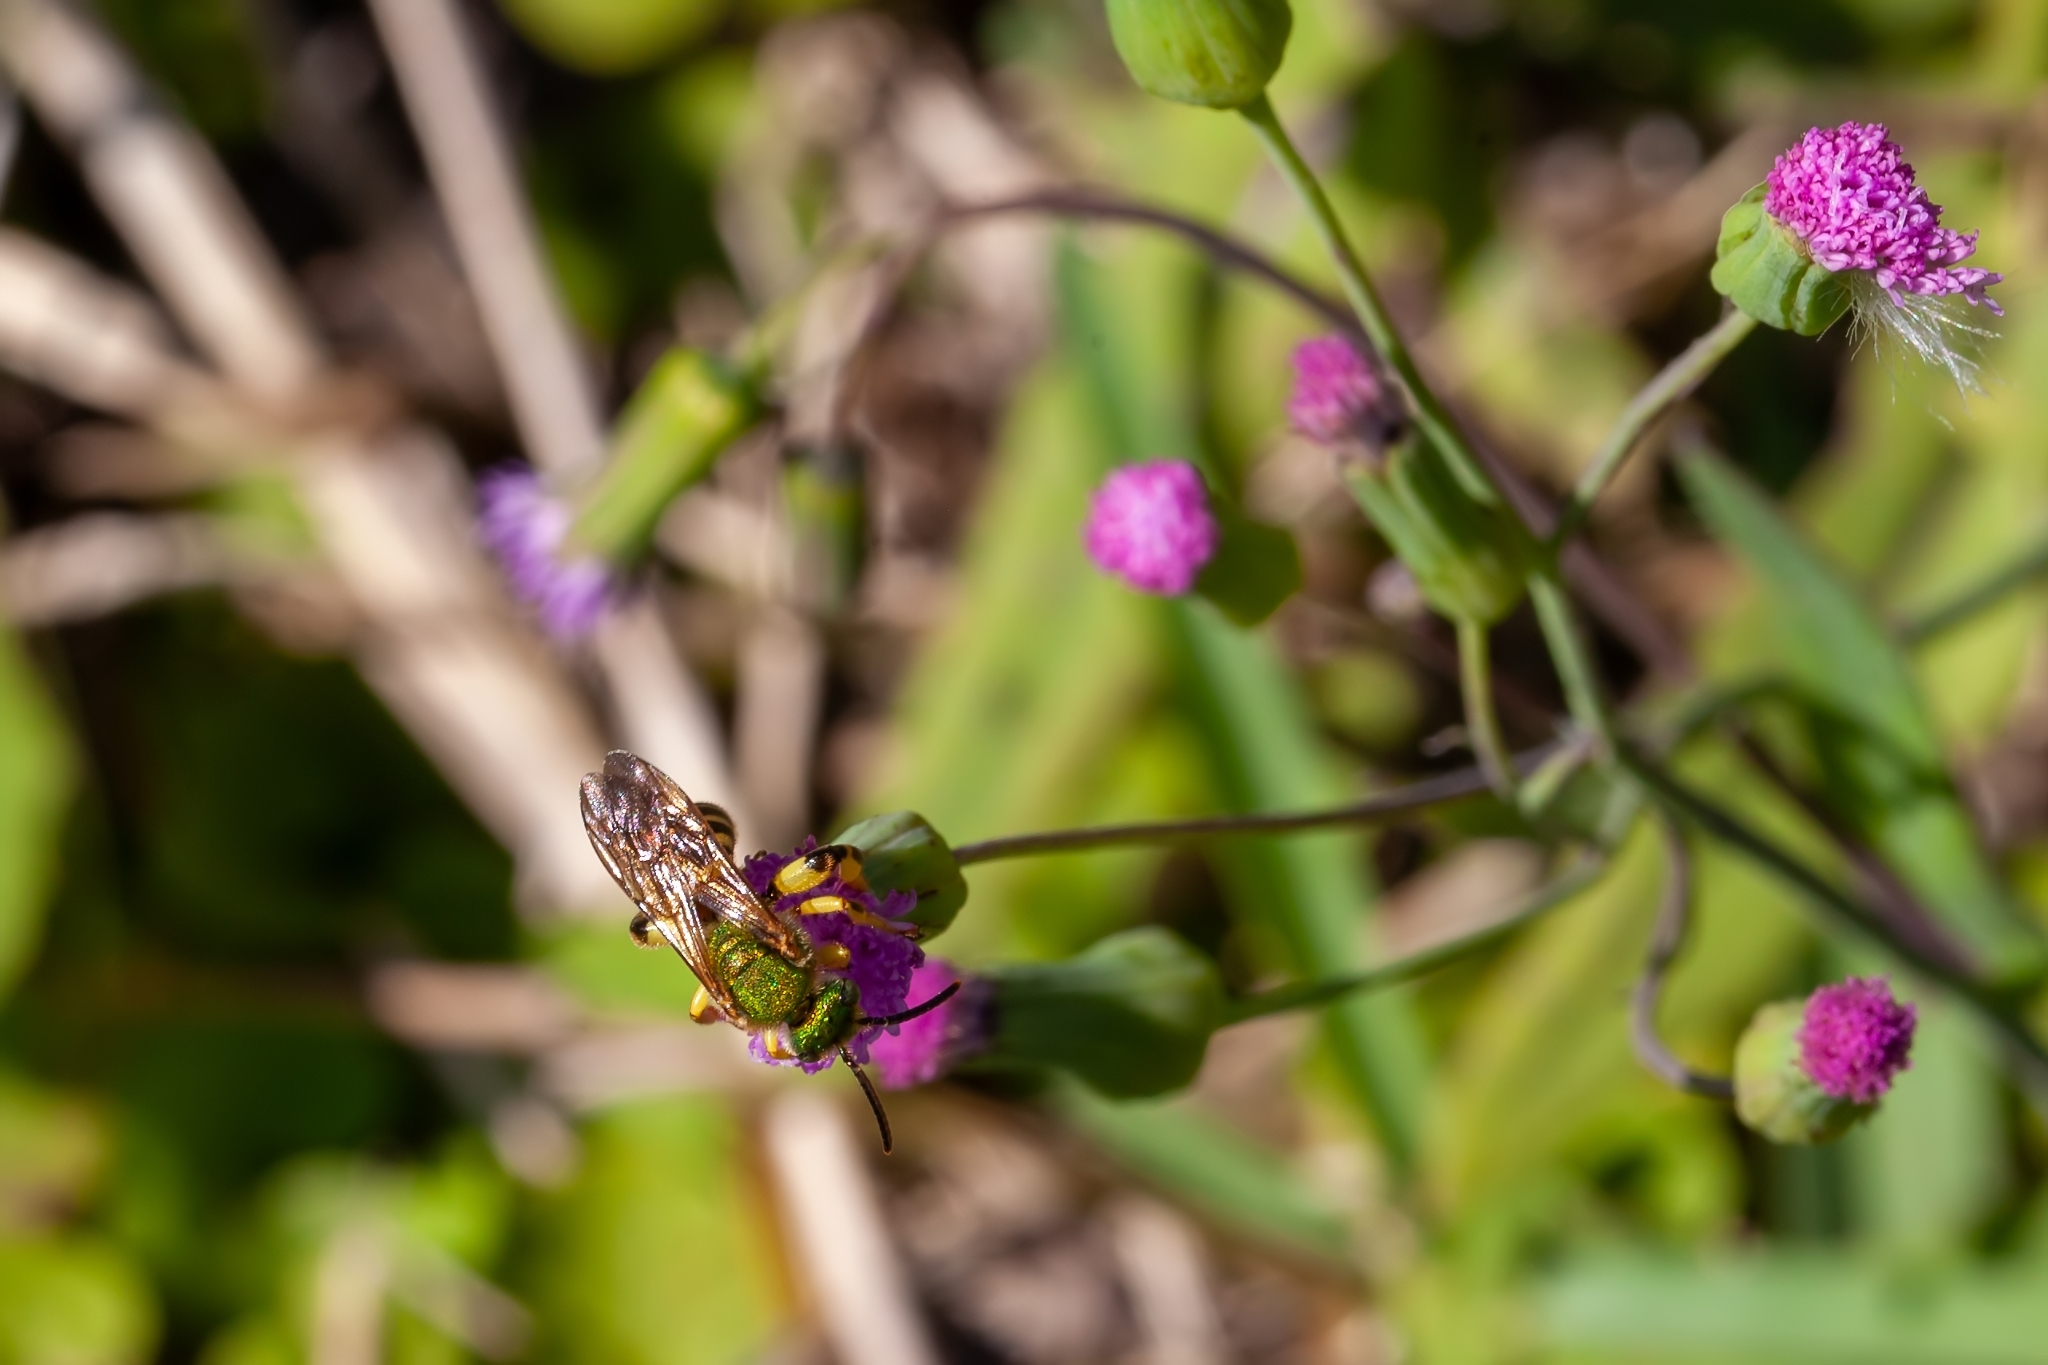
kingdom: Animalia
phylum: Arthropoda
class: Insecta
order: Hymenoptera
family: Halictidae
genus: Agapostemon
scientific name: Agapostemon splendens
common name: Brown-winged striped sweat bee
